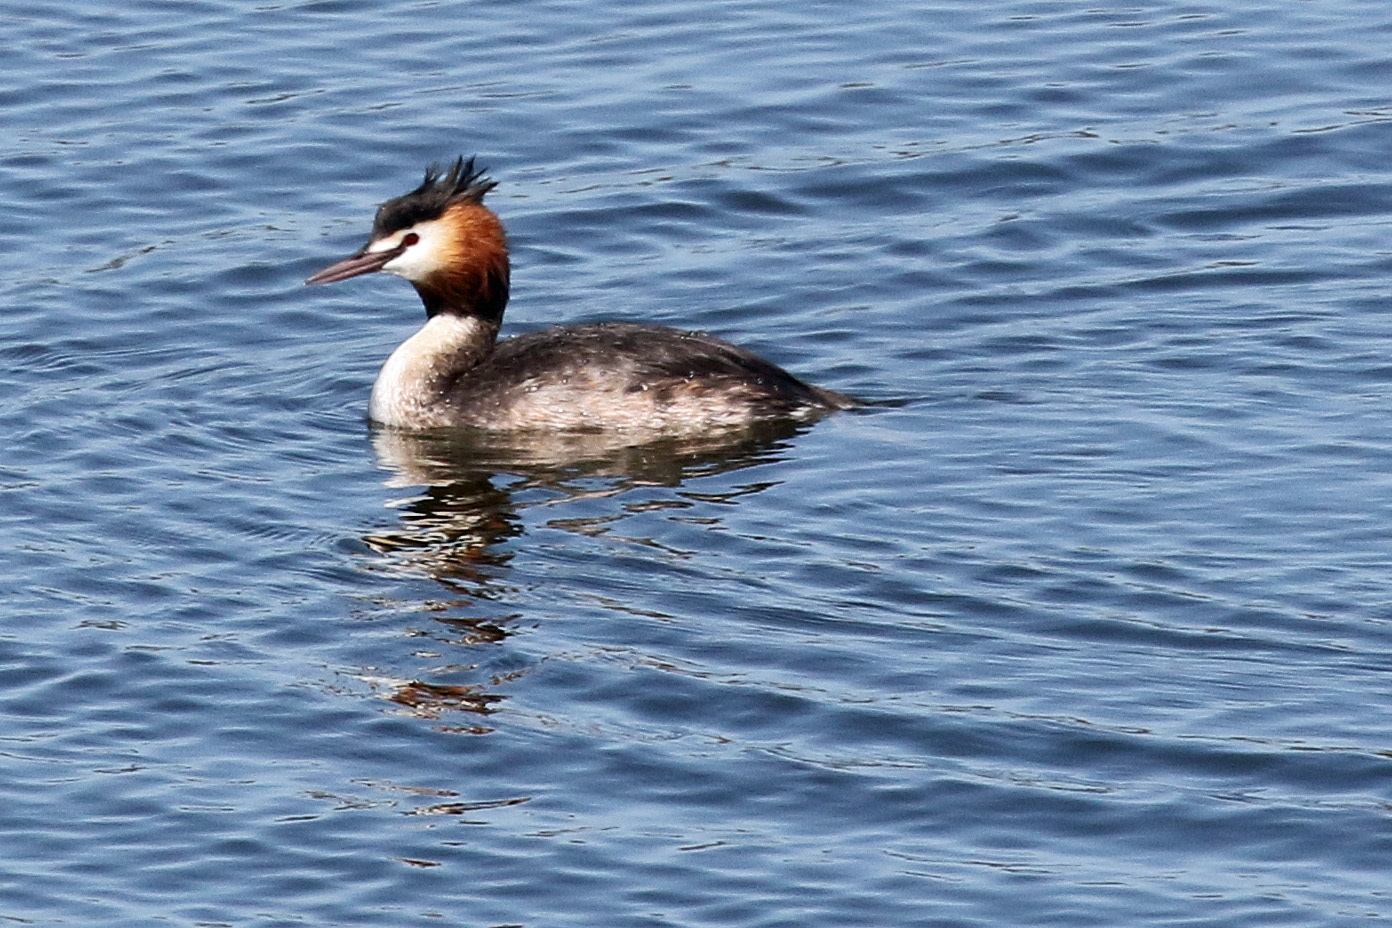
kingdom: Animalia
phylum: Chordata
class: Aves
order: Podicipediformes
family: Podicipedidae
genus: Podiceps
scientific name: Podiceps cristatus
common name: Great crested grebe
